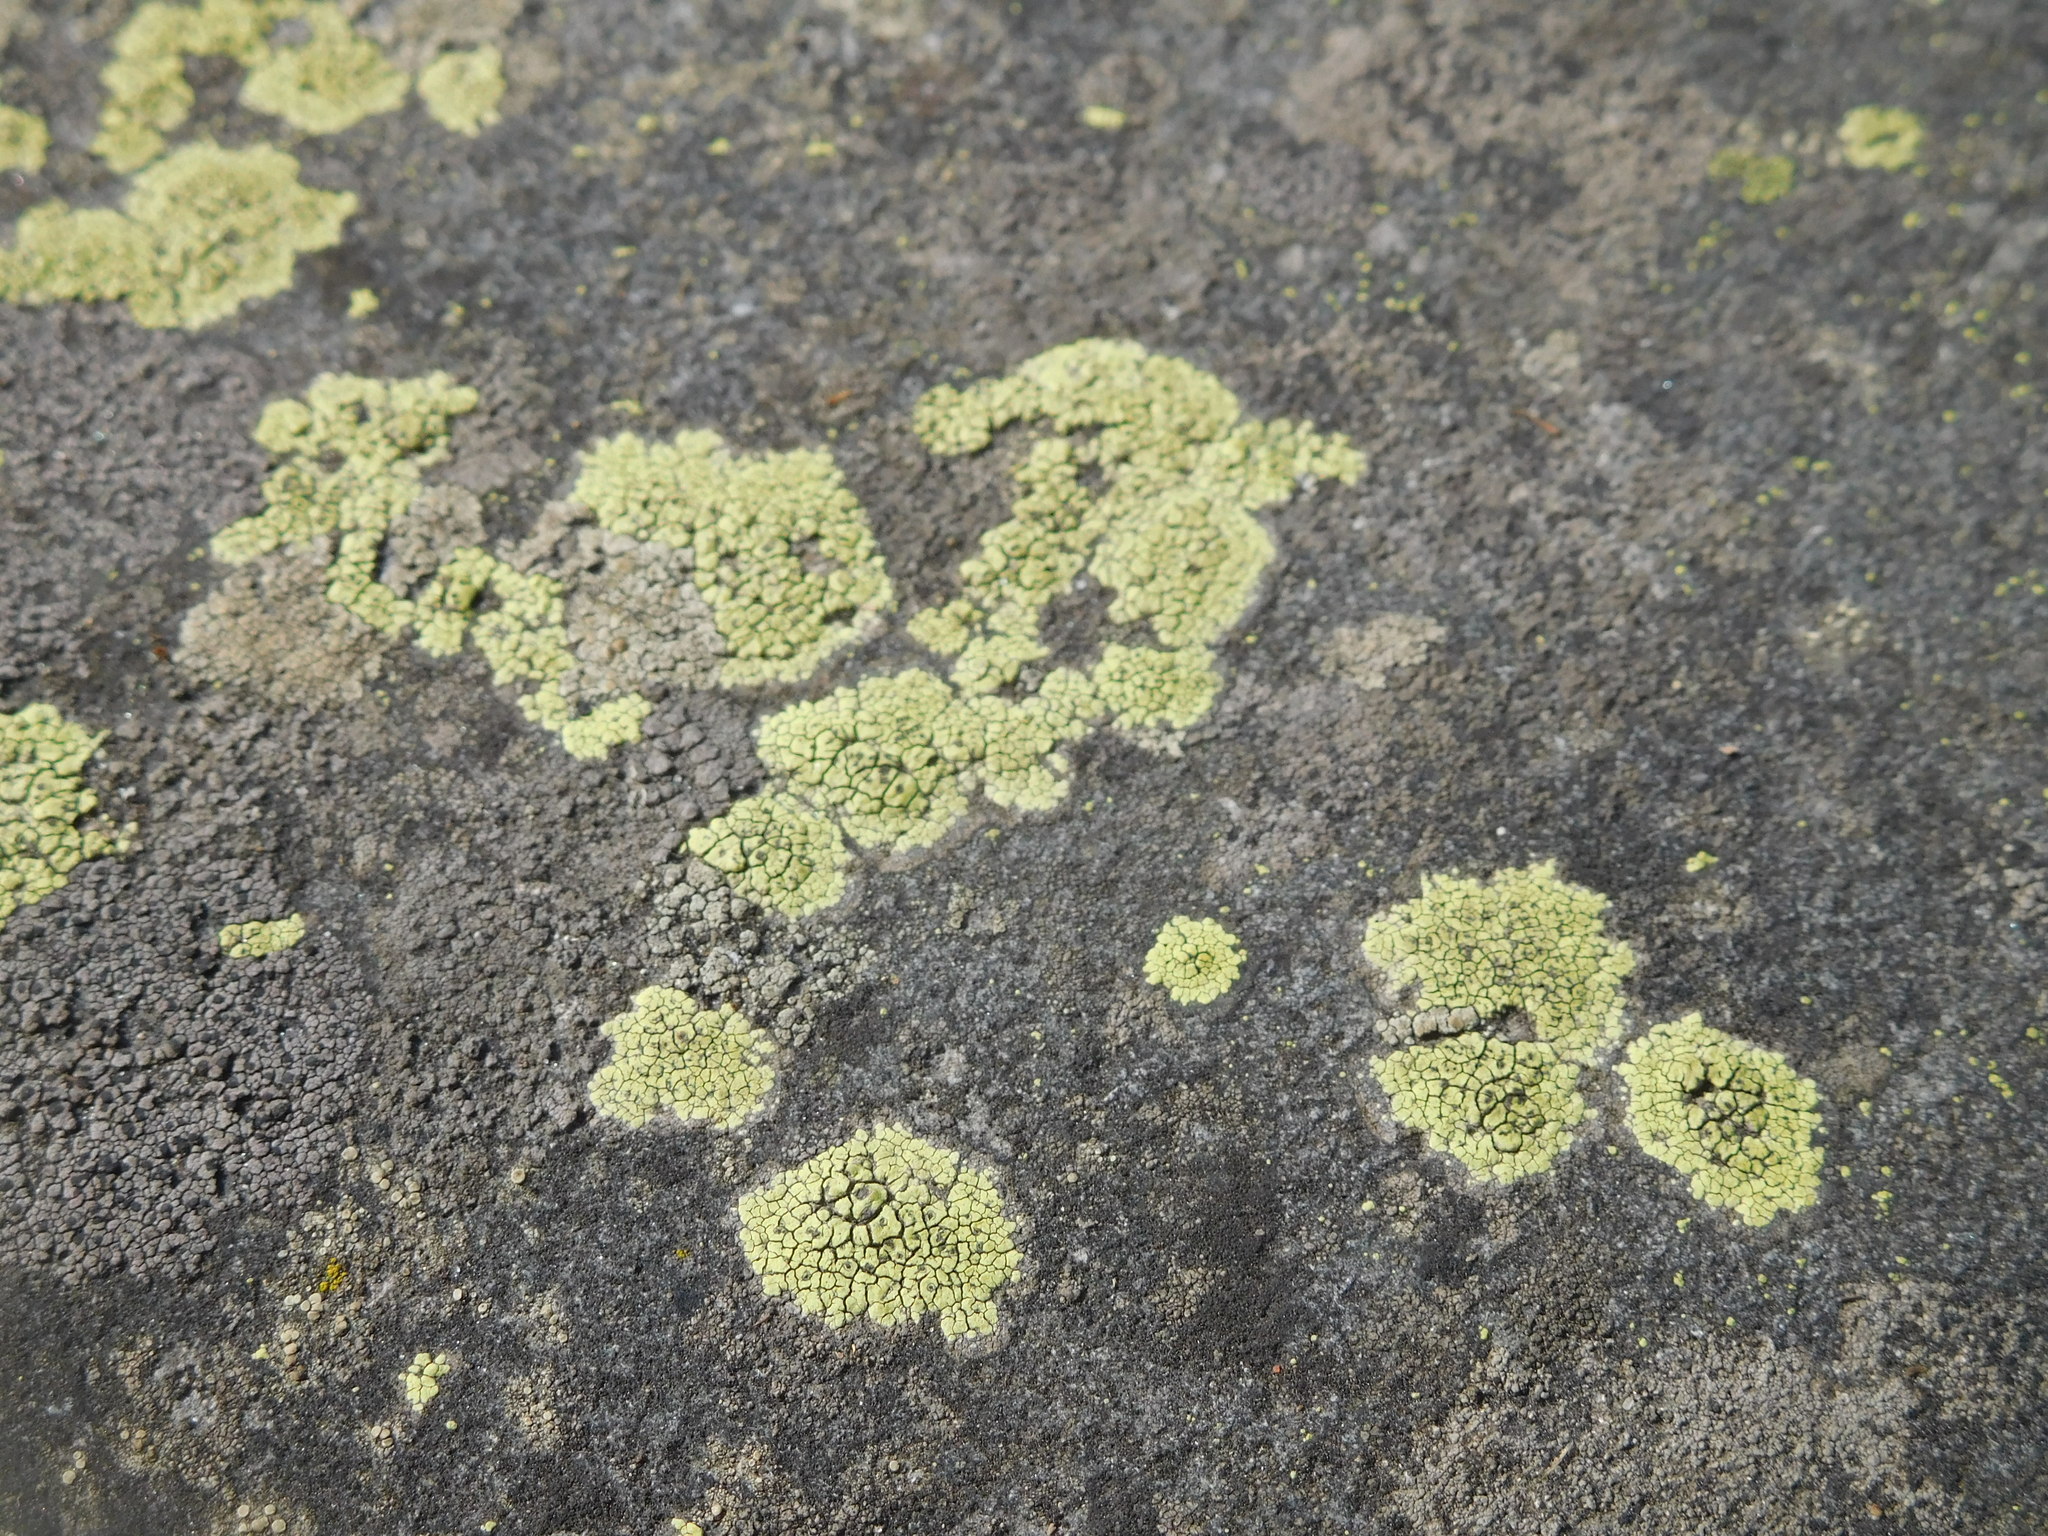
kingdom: Fungi
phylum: Ascomycota
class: Lecanoromycetes
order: Rhizocarpales
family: Rhizocarpaceae
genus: Rhizocarpon
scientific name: Rhizocarpon
